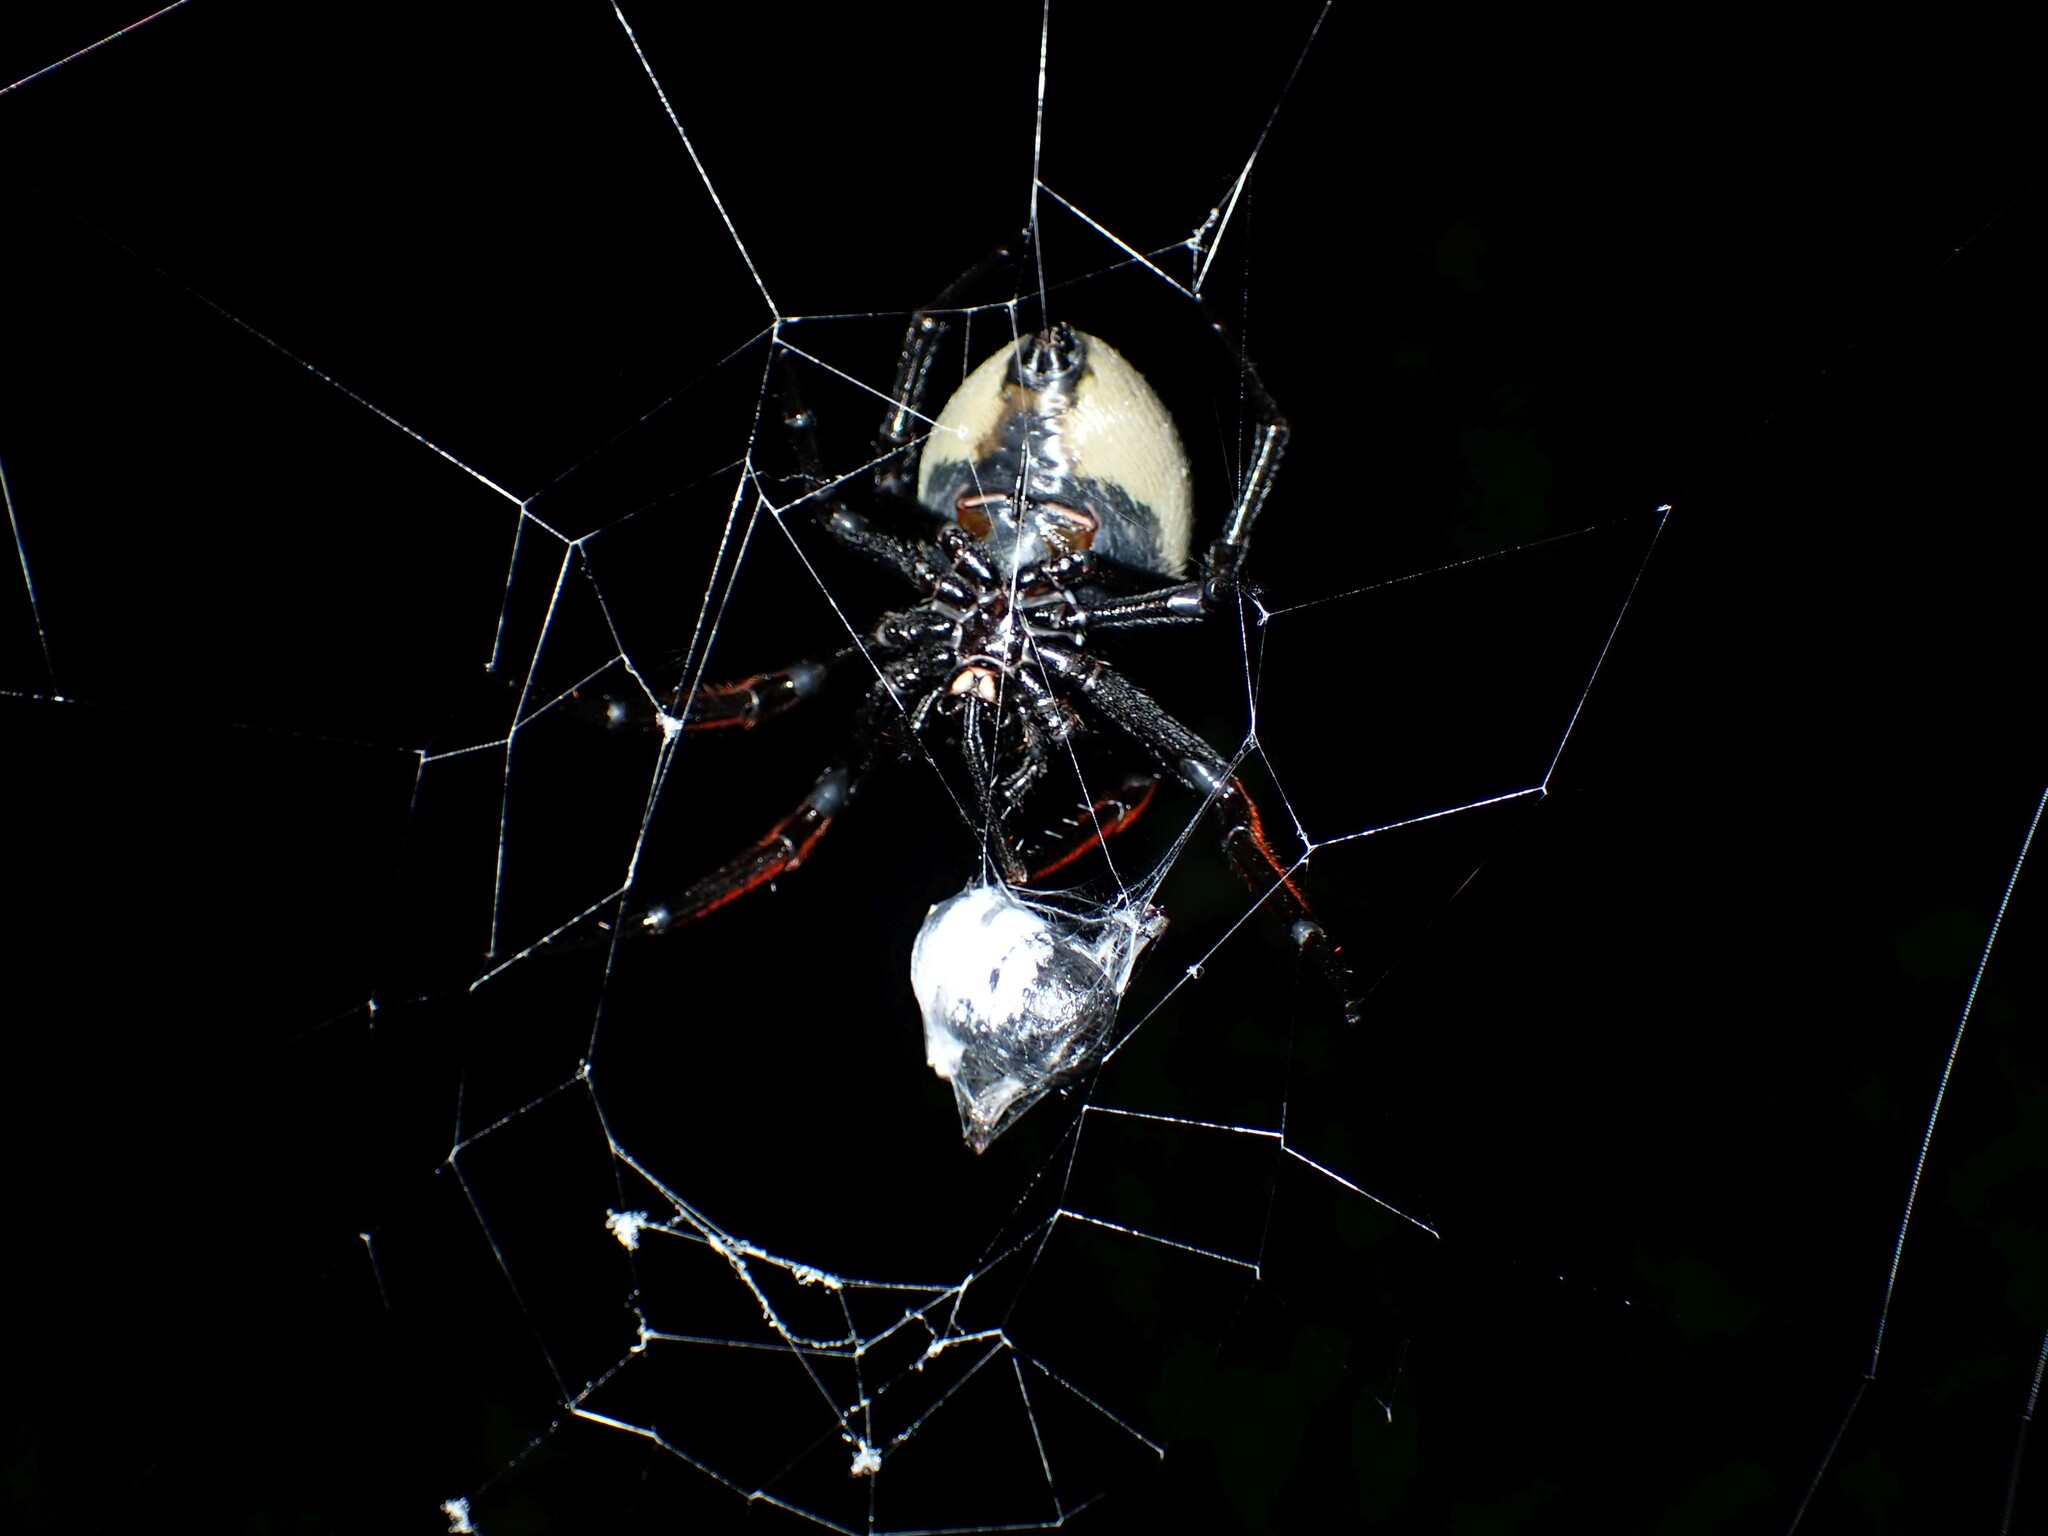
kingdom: Animalia
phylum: Arthropoda
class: Arachnida
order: Araneae
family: Araneidae
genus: Hortophora
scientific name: Hortophora capitalis
